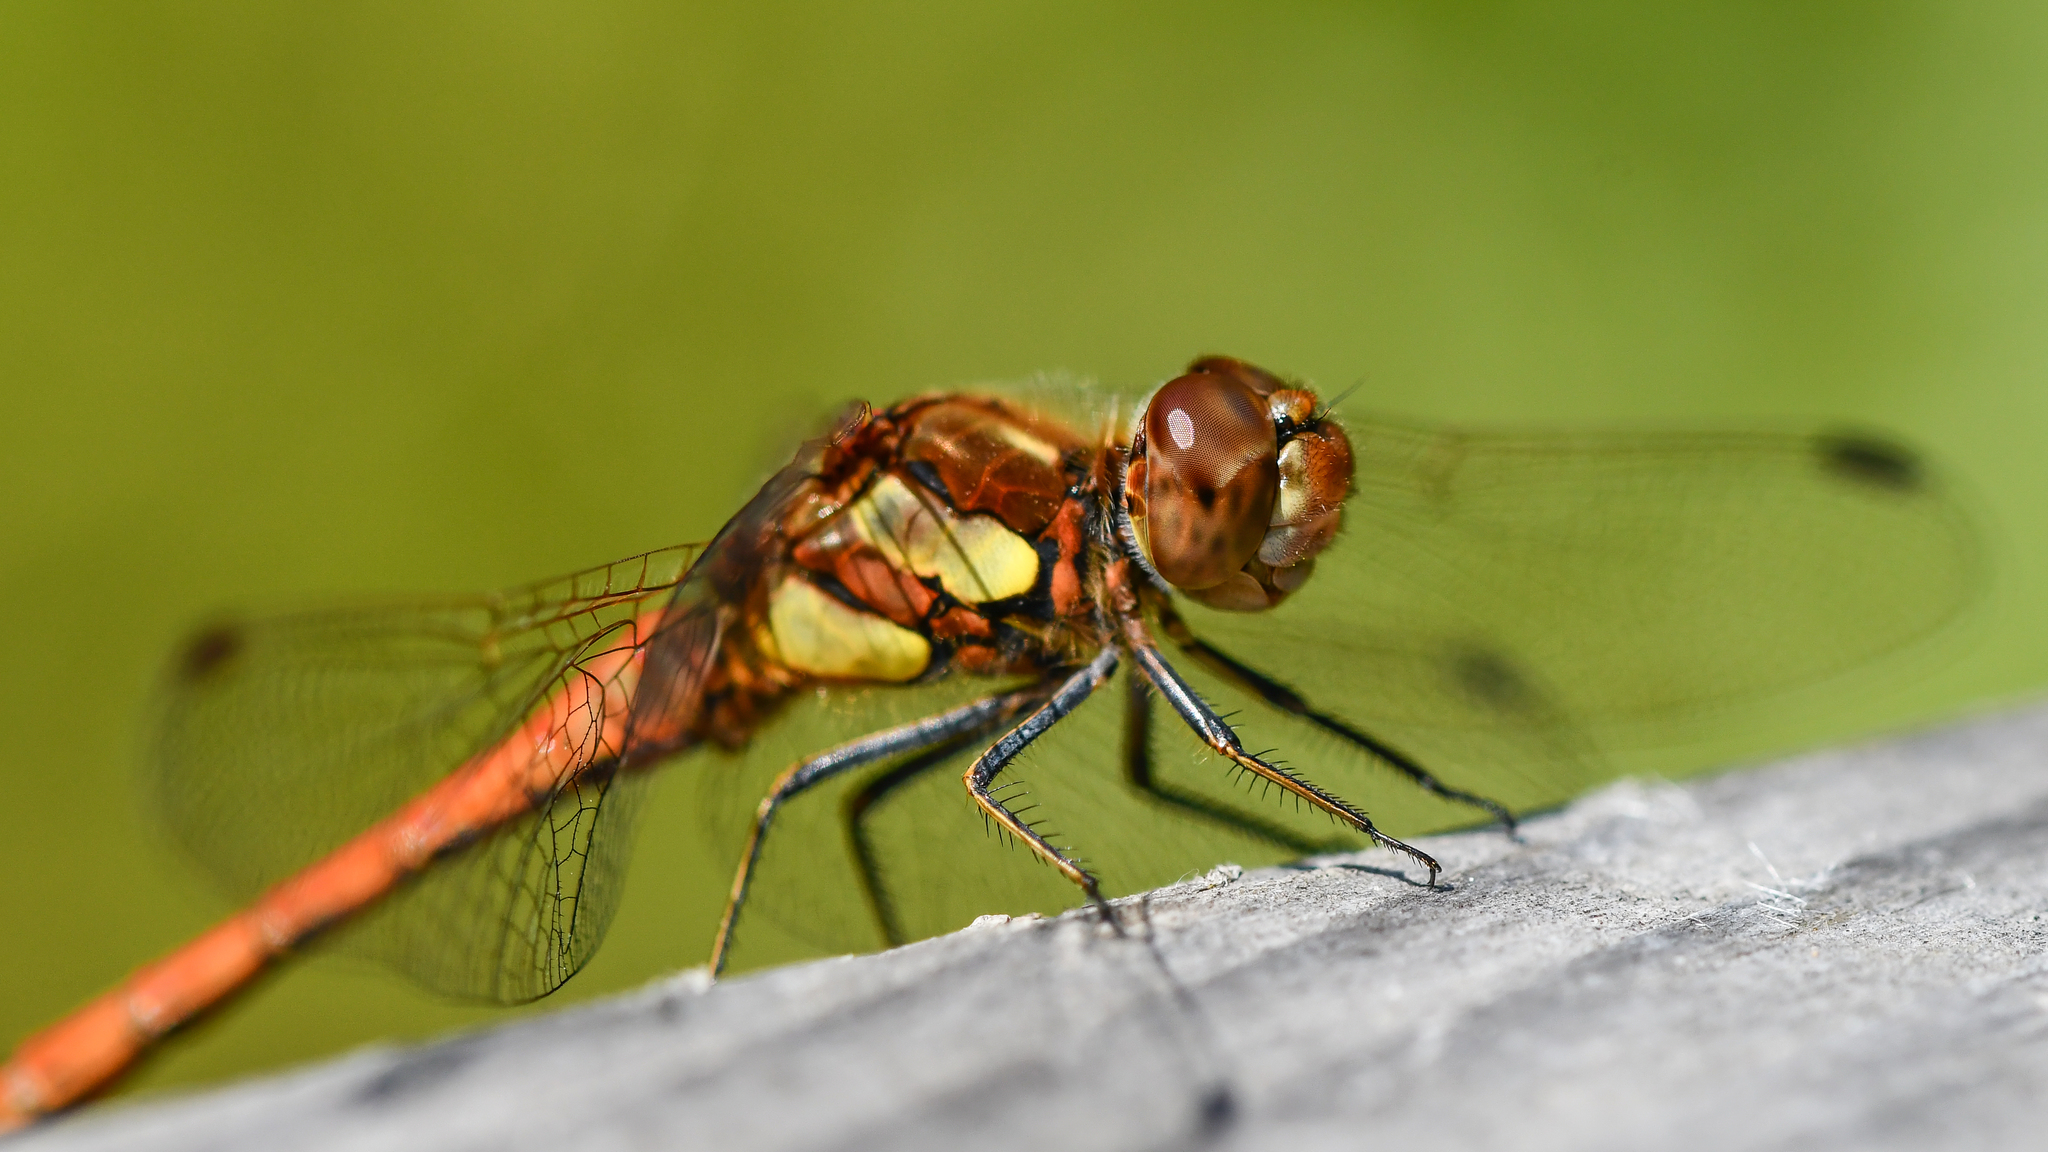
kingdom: Animalia
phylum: Arthropoda
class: Insecta
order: Odonata
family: Libellulidae
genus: Sympetrum
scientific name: Sympetrum striolatum
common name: Common darter
